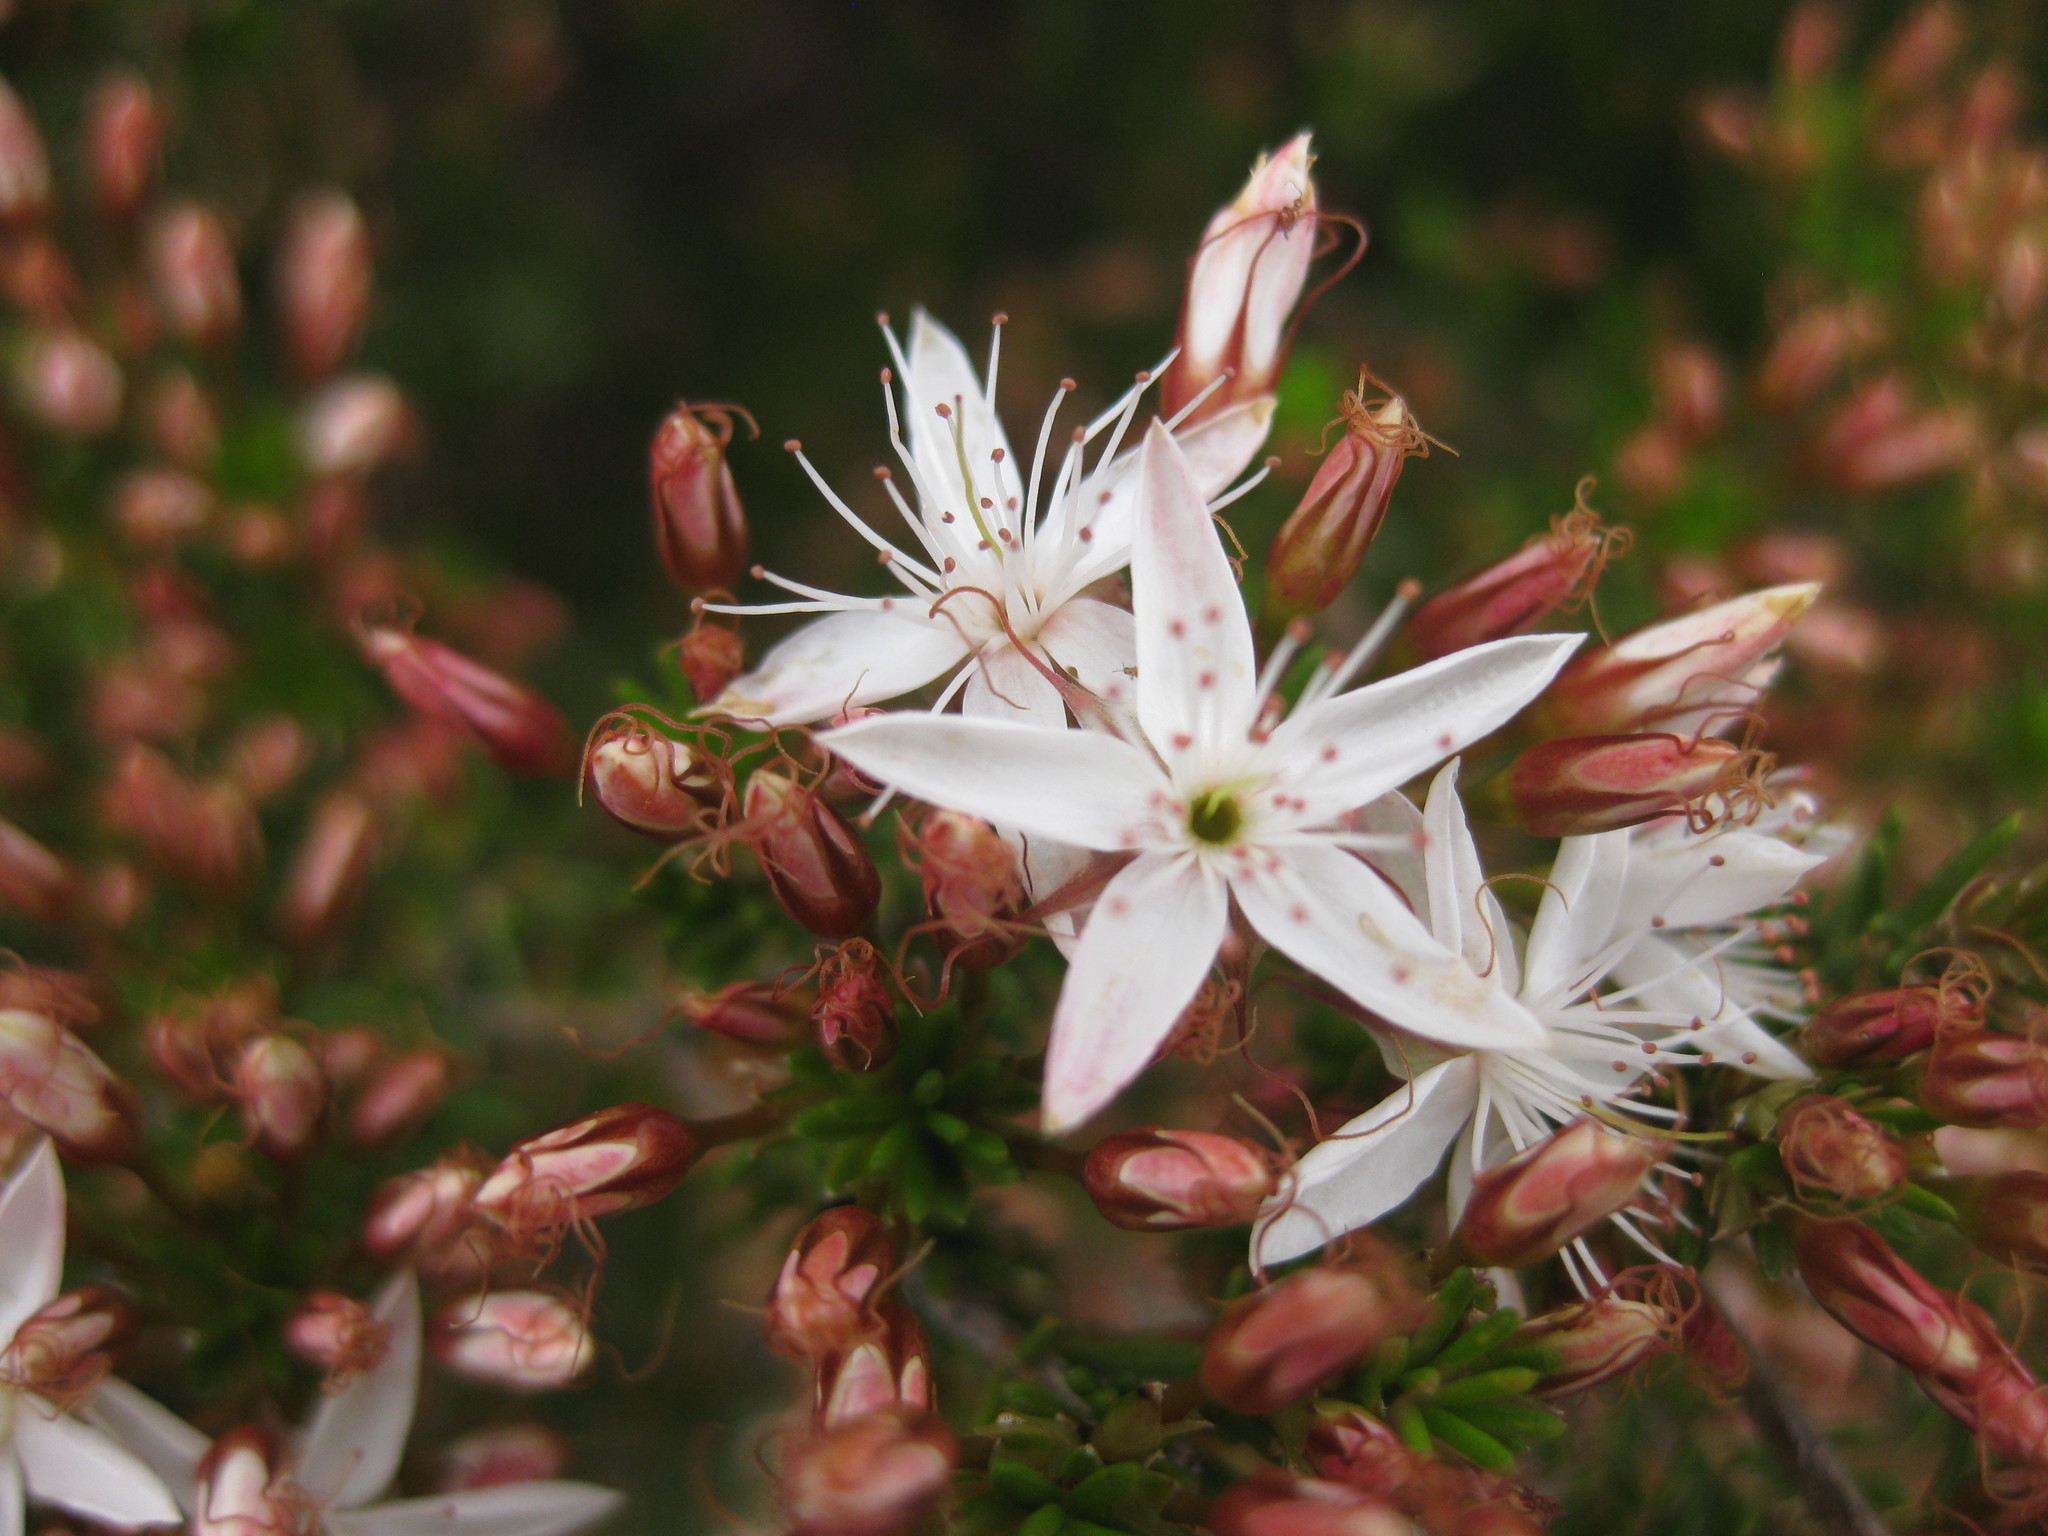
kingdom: Plantae
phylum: Tracheophyta
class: Magnoliopsida
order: Myrtales
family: Myrtaceae
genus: Calytrix
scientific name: Calytrix tetragona
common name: Common fringe myrtle
